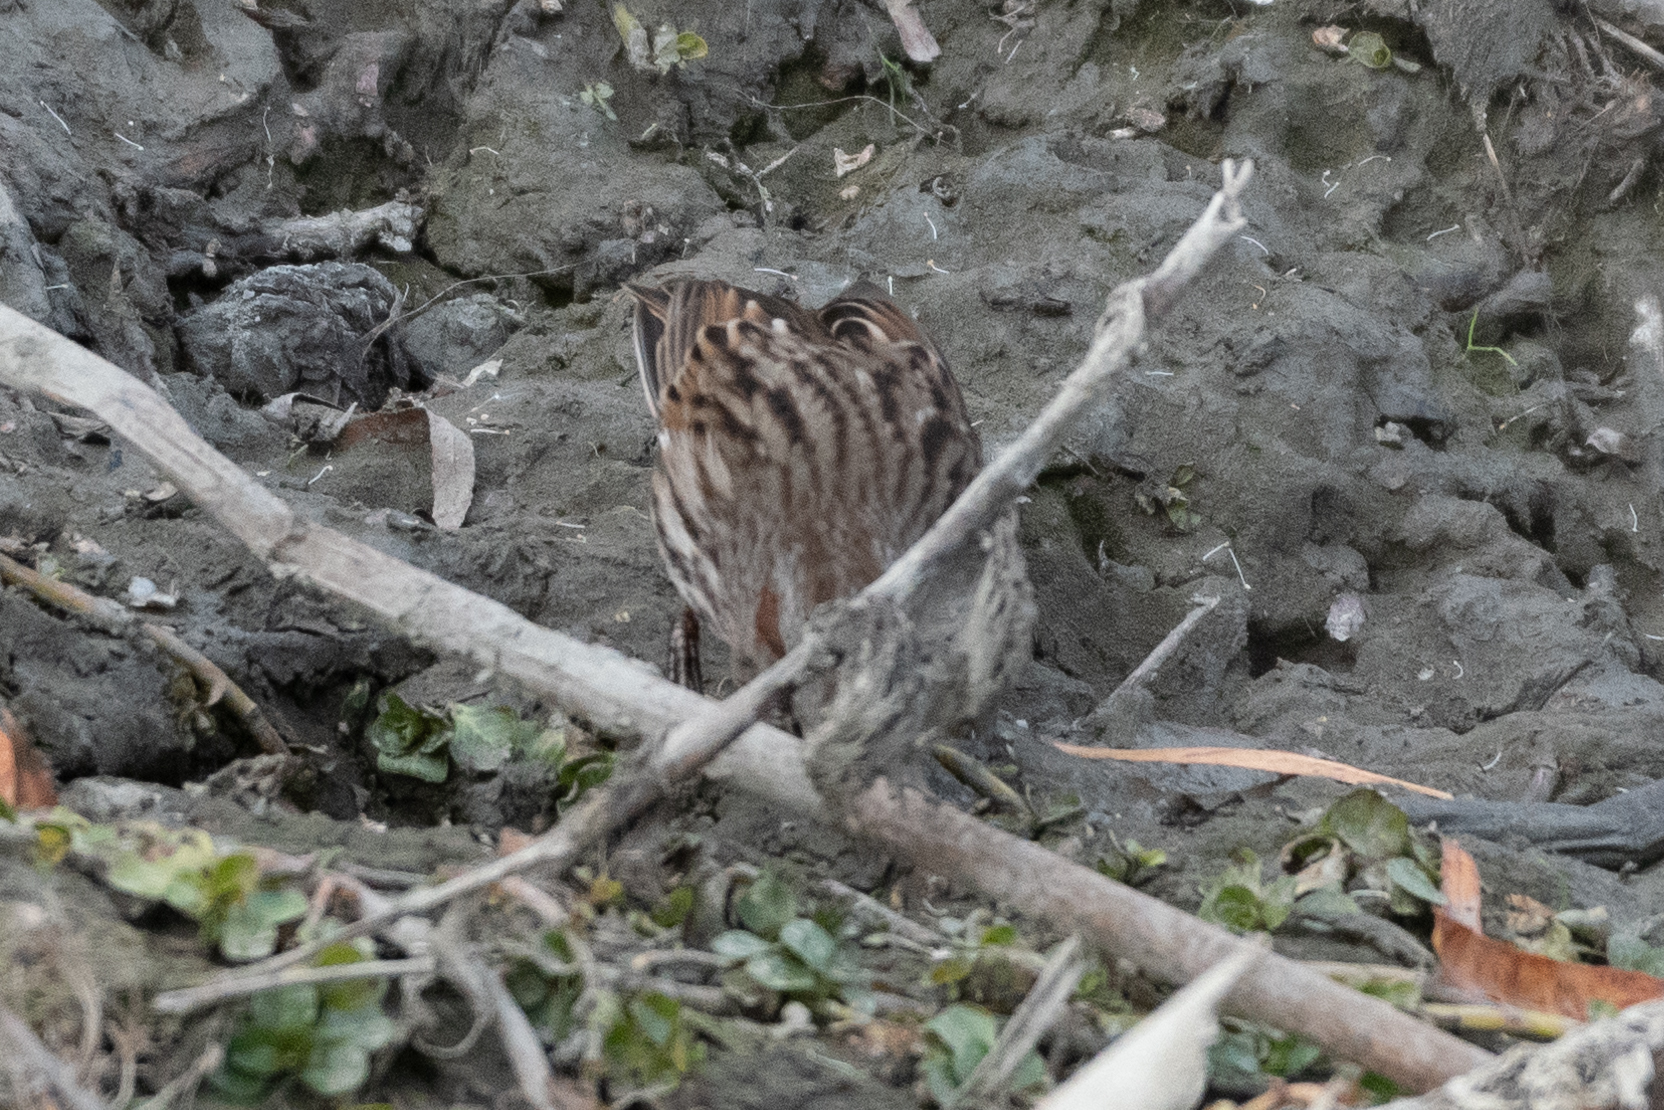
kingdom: Animalia
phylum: Chordata
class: Aves
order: Passeriformes
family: Passerellidae
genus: Melospiza
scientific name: Melospiza melodia
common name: Song sparrow
